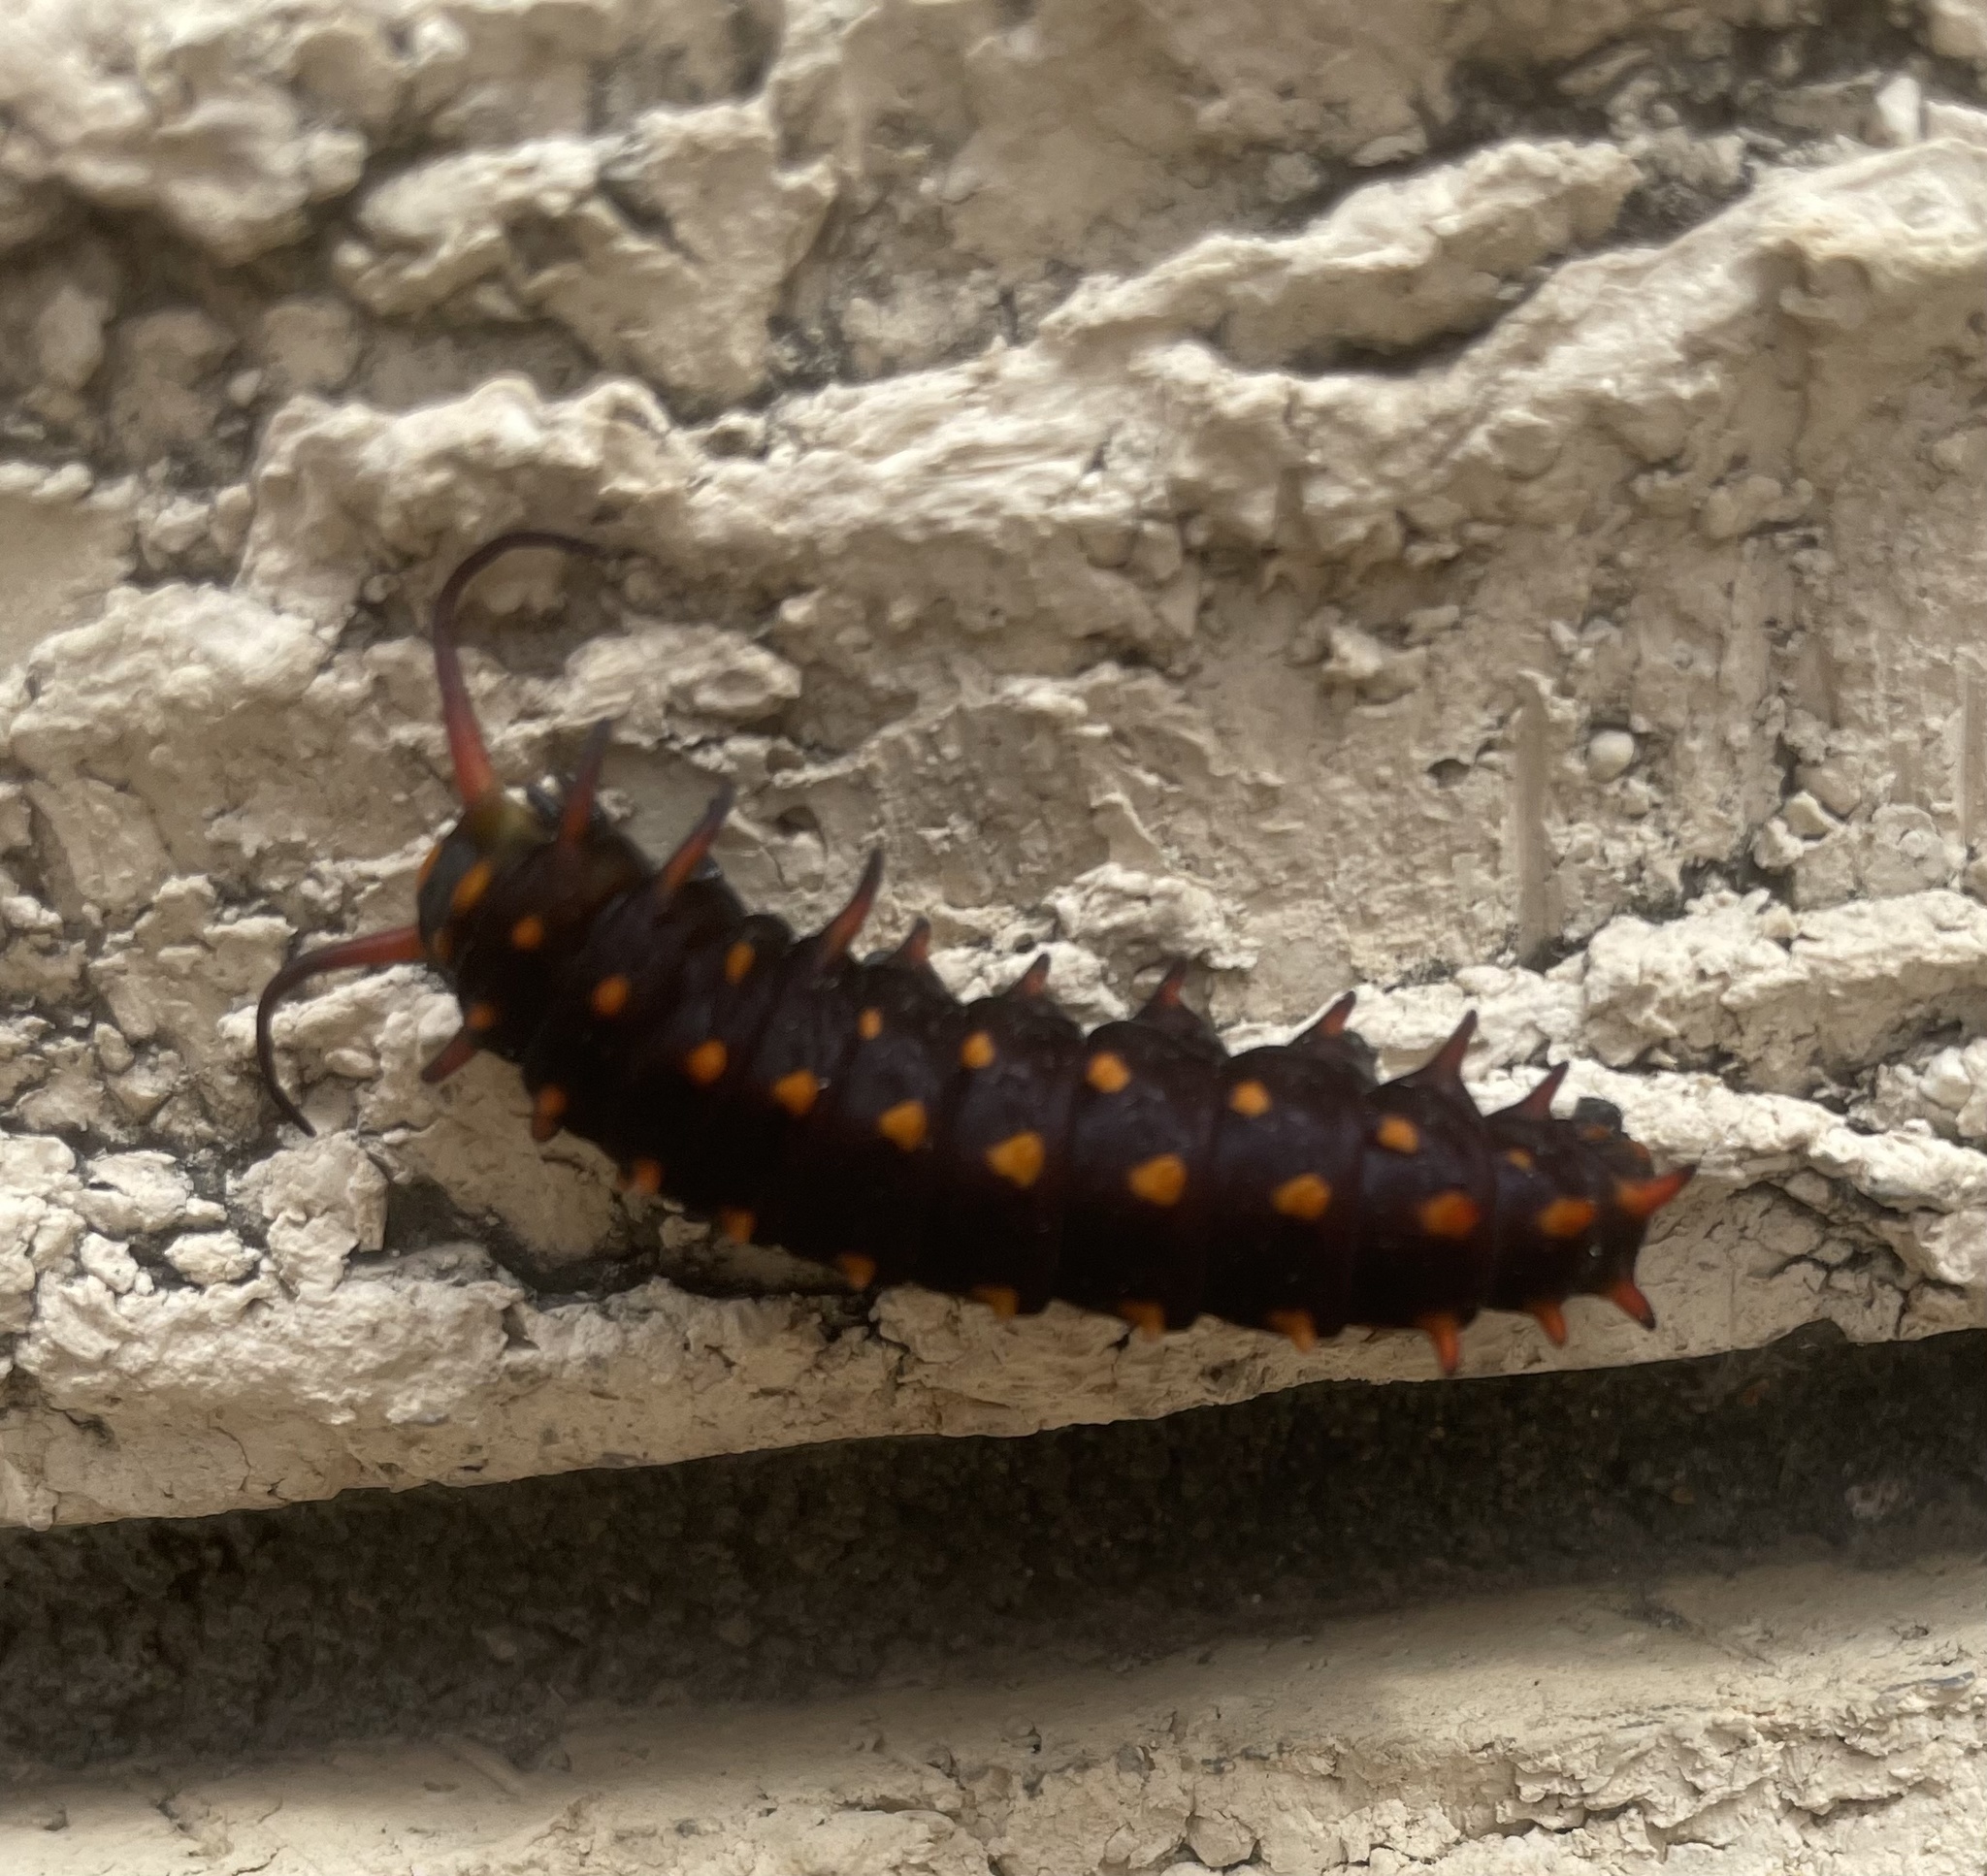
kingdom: Animalia
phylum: Arthropoda
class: Insecta
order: Lepidoptera
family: Papilionidae
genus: Battus
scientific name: Battus philenor
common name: Pipevine swallowtail
